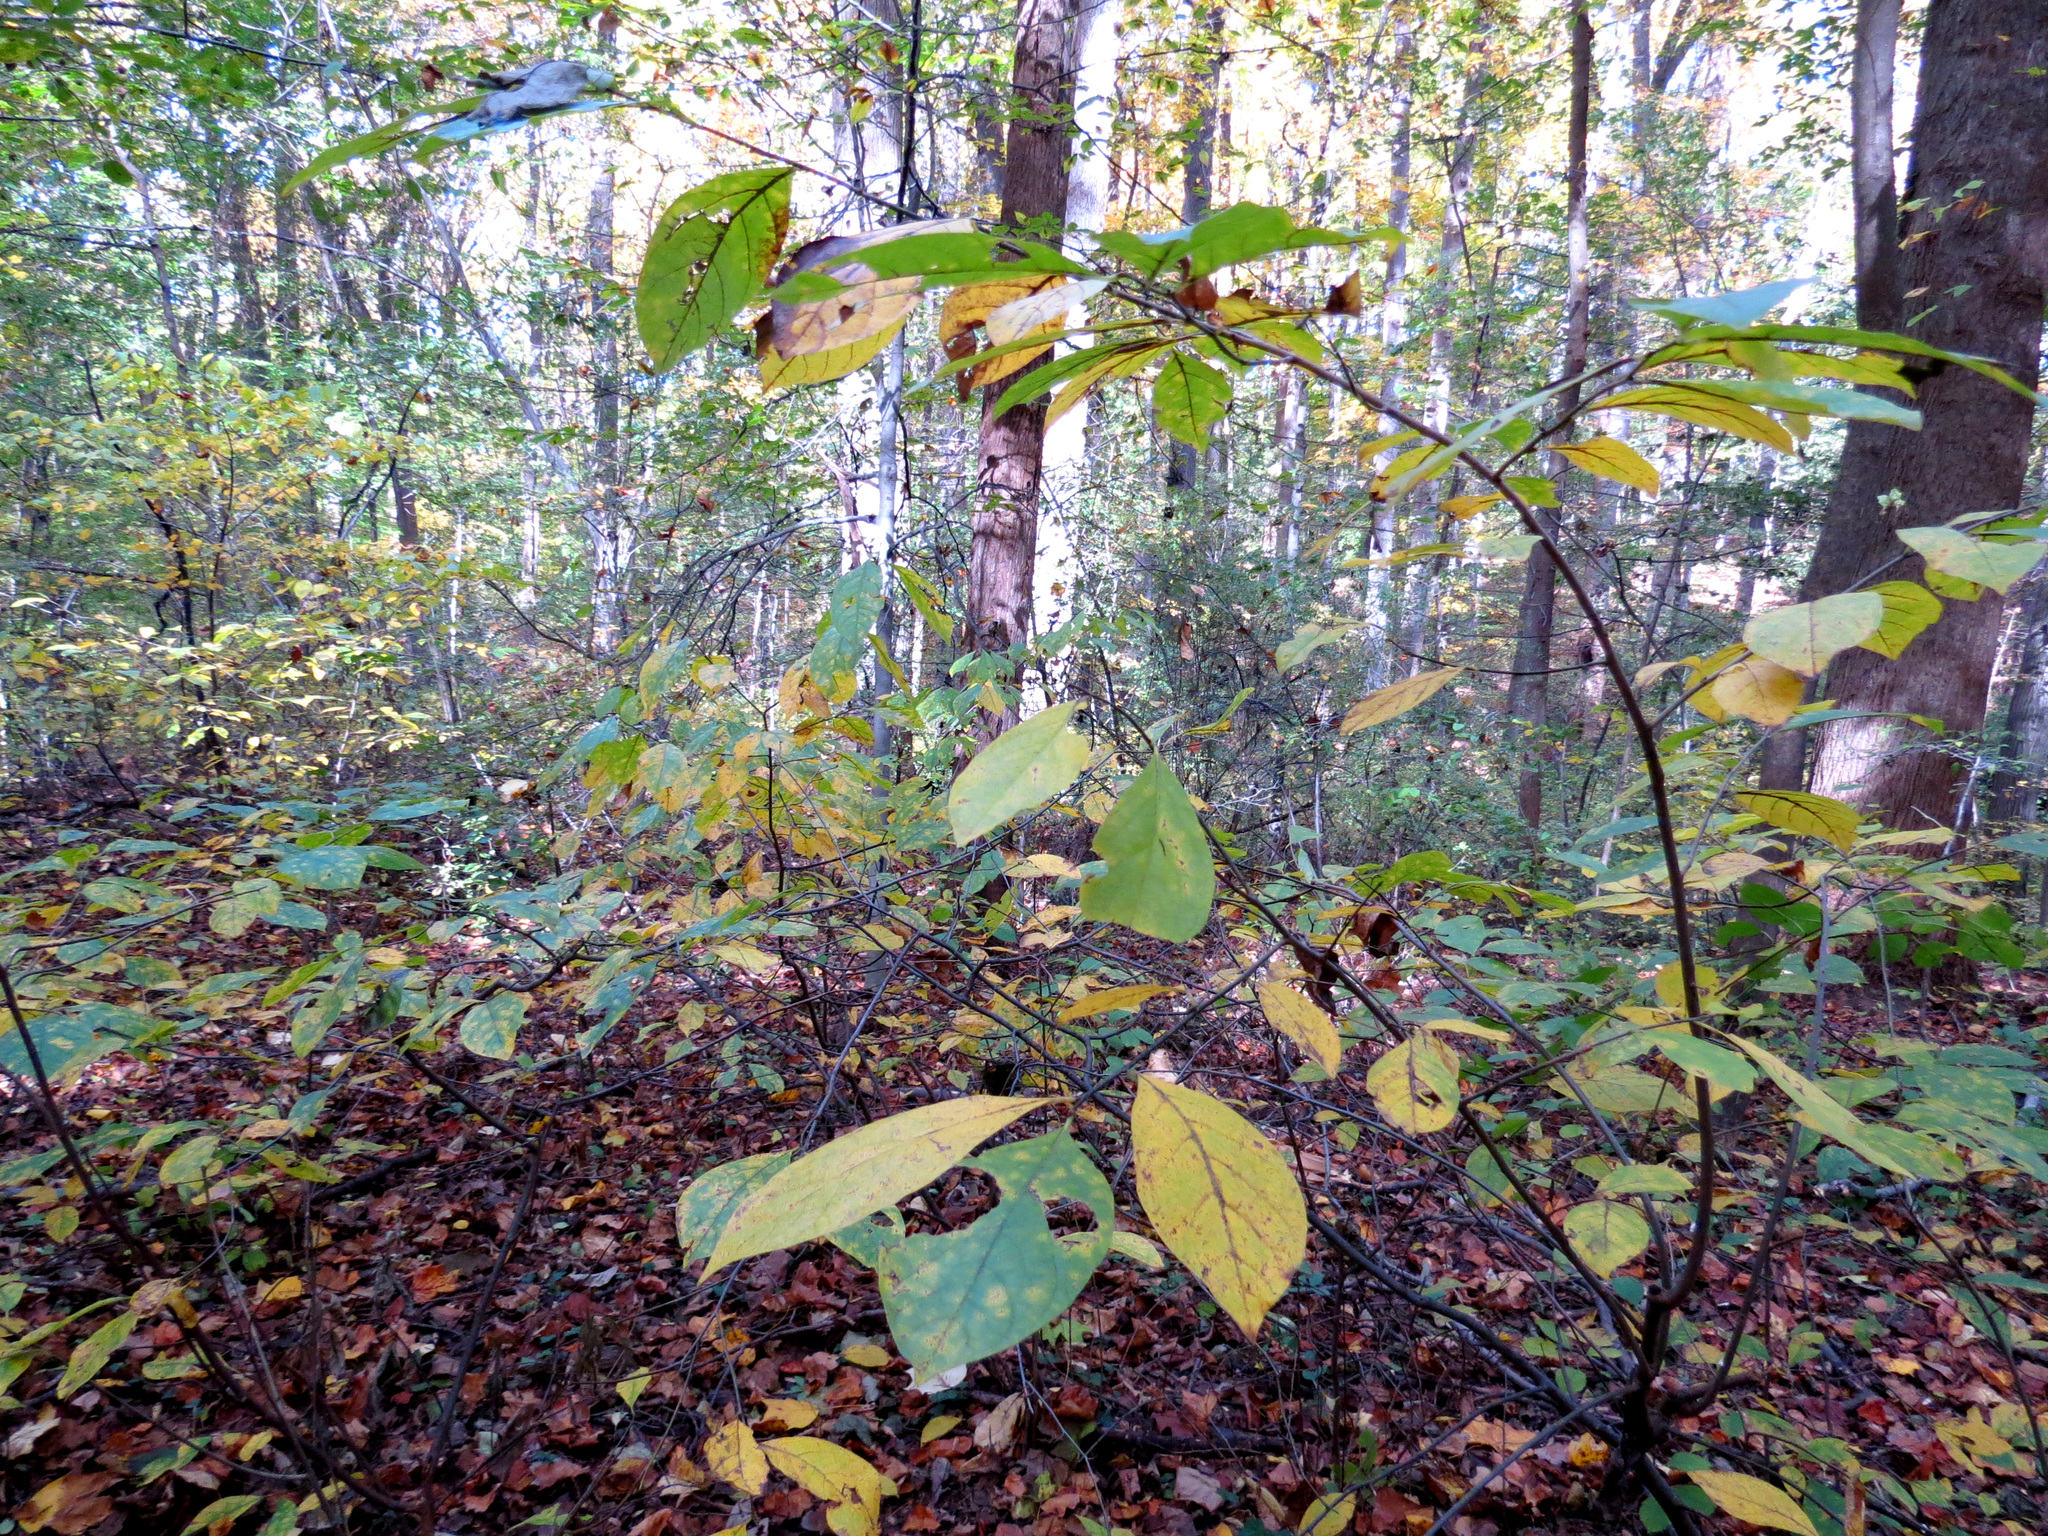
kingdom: Plantae
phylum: Tracheophyta
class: Magnoliopsida
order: Laurales
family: Lauraceae
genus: Lindera
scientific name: Lindera benzoin
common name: Spicebush
